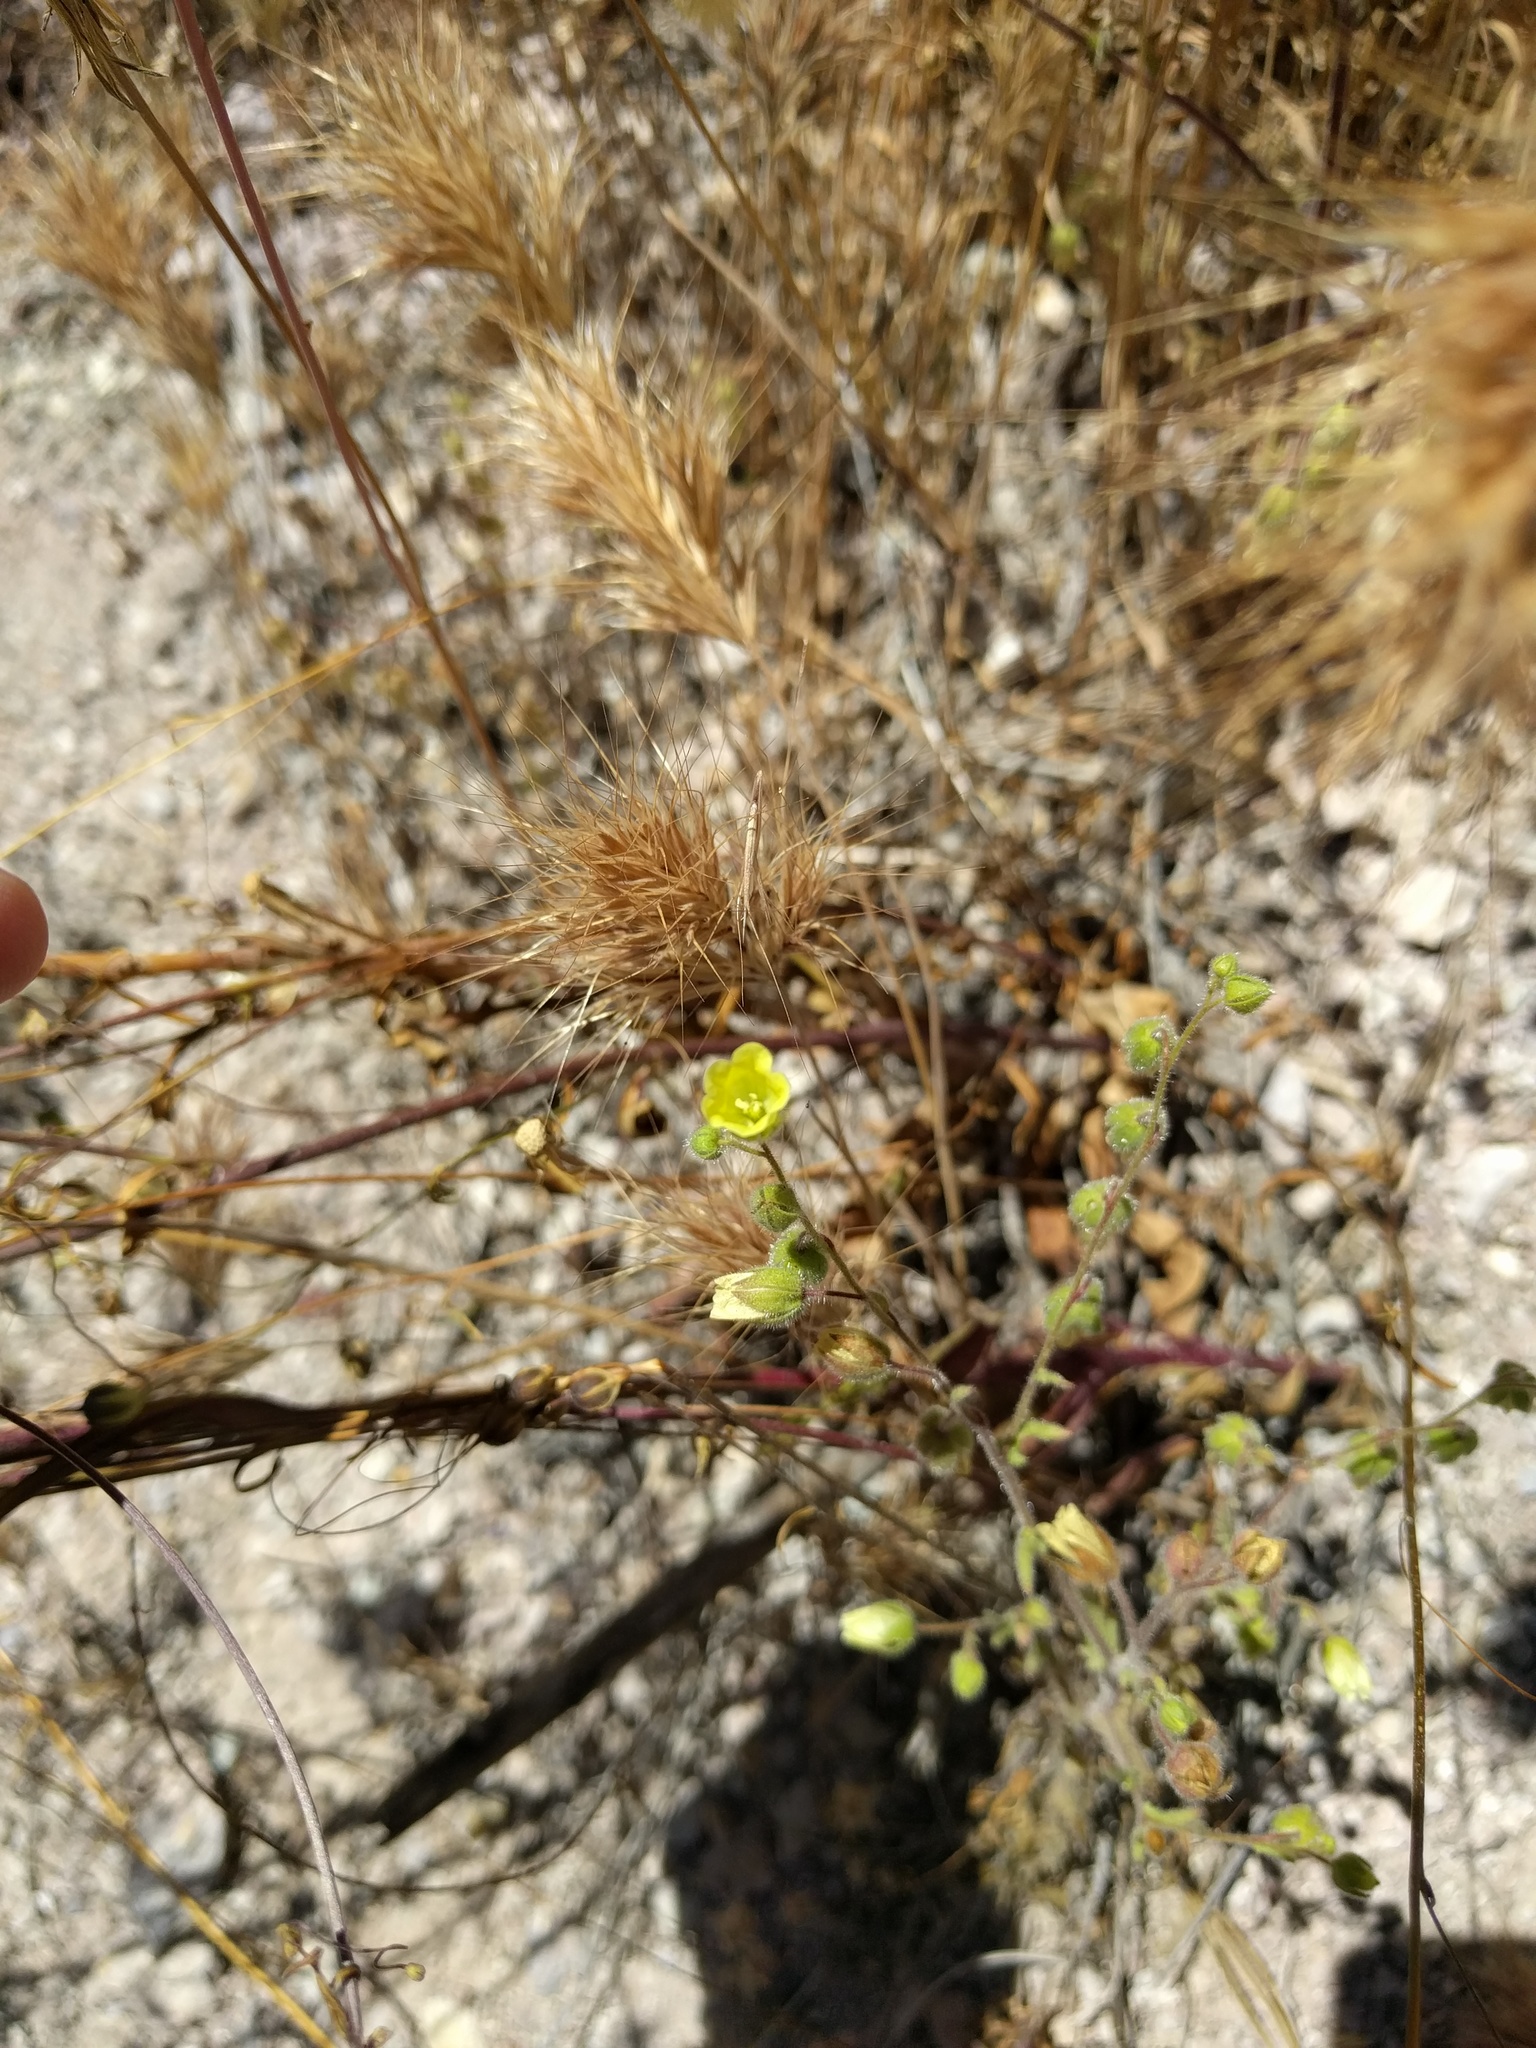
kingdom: Plantae
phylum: Tracheophyta
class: Magnoliopsida
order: Boraginales
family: Hydrophyllaceae
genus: Emmenanthe
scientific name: Emmenanthe penduliflora
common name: Whispering-bells
